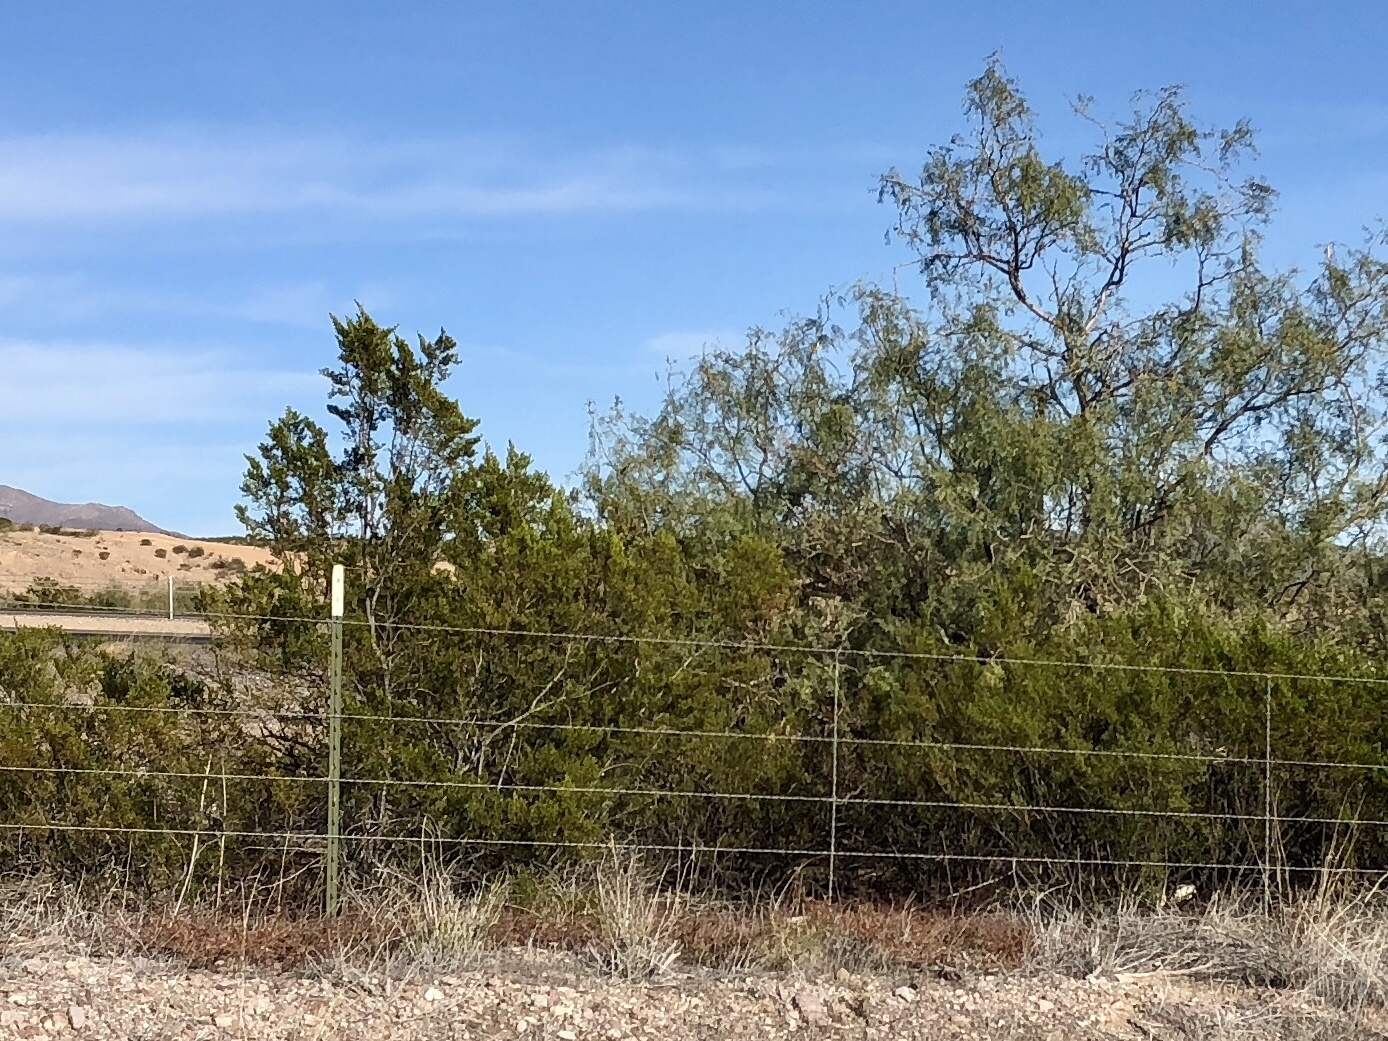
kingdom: Plantae
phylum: Tracheophyta
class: Magnoliopsida
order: Zygophyllales
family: Zygophyllaceae
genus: Larrea
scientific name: Larrea tridentata
